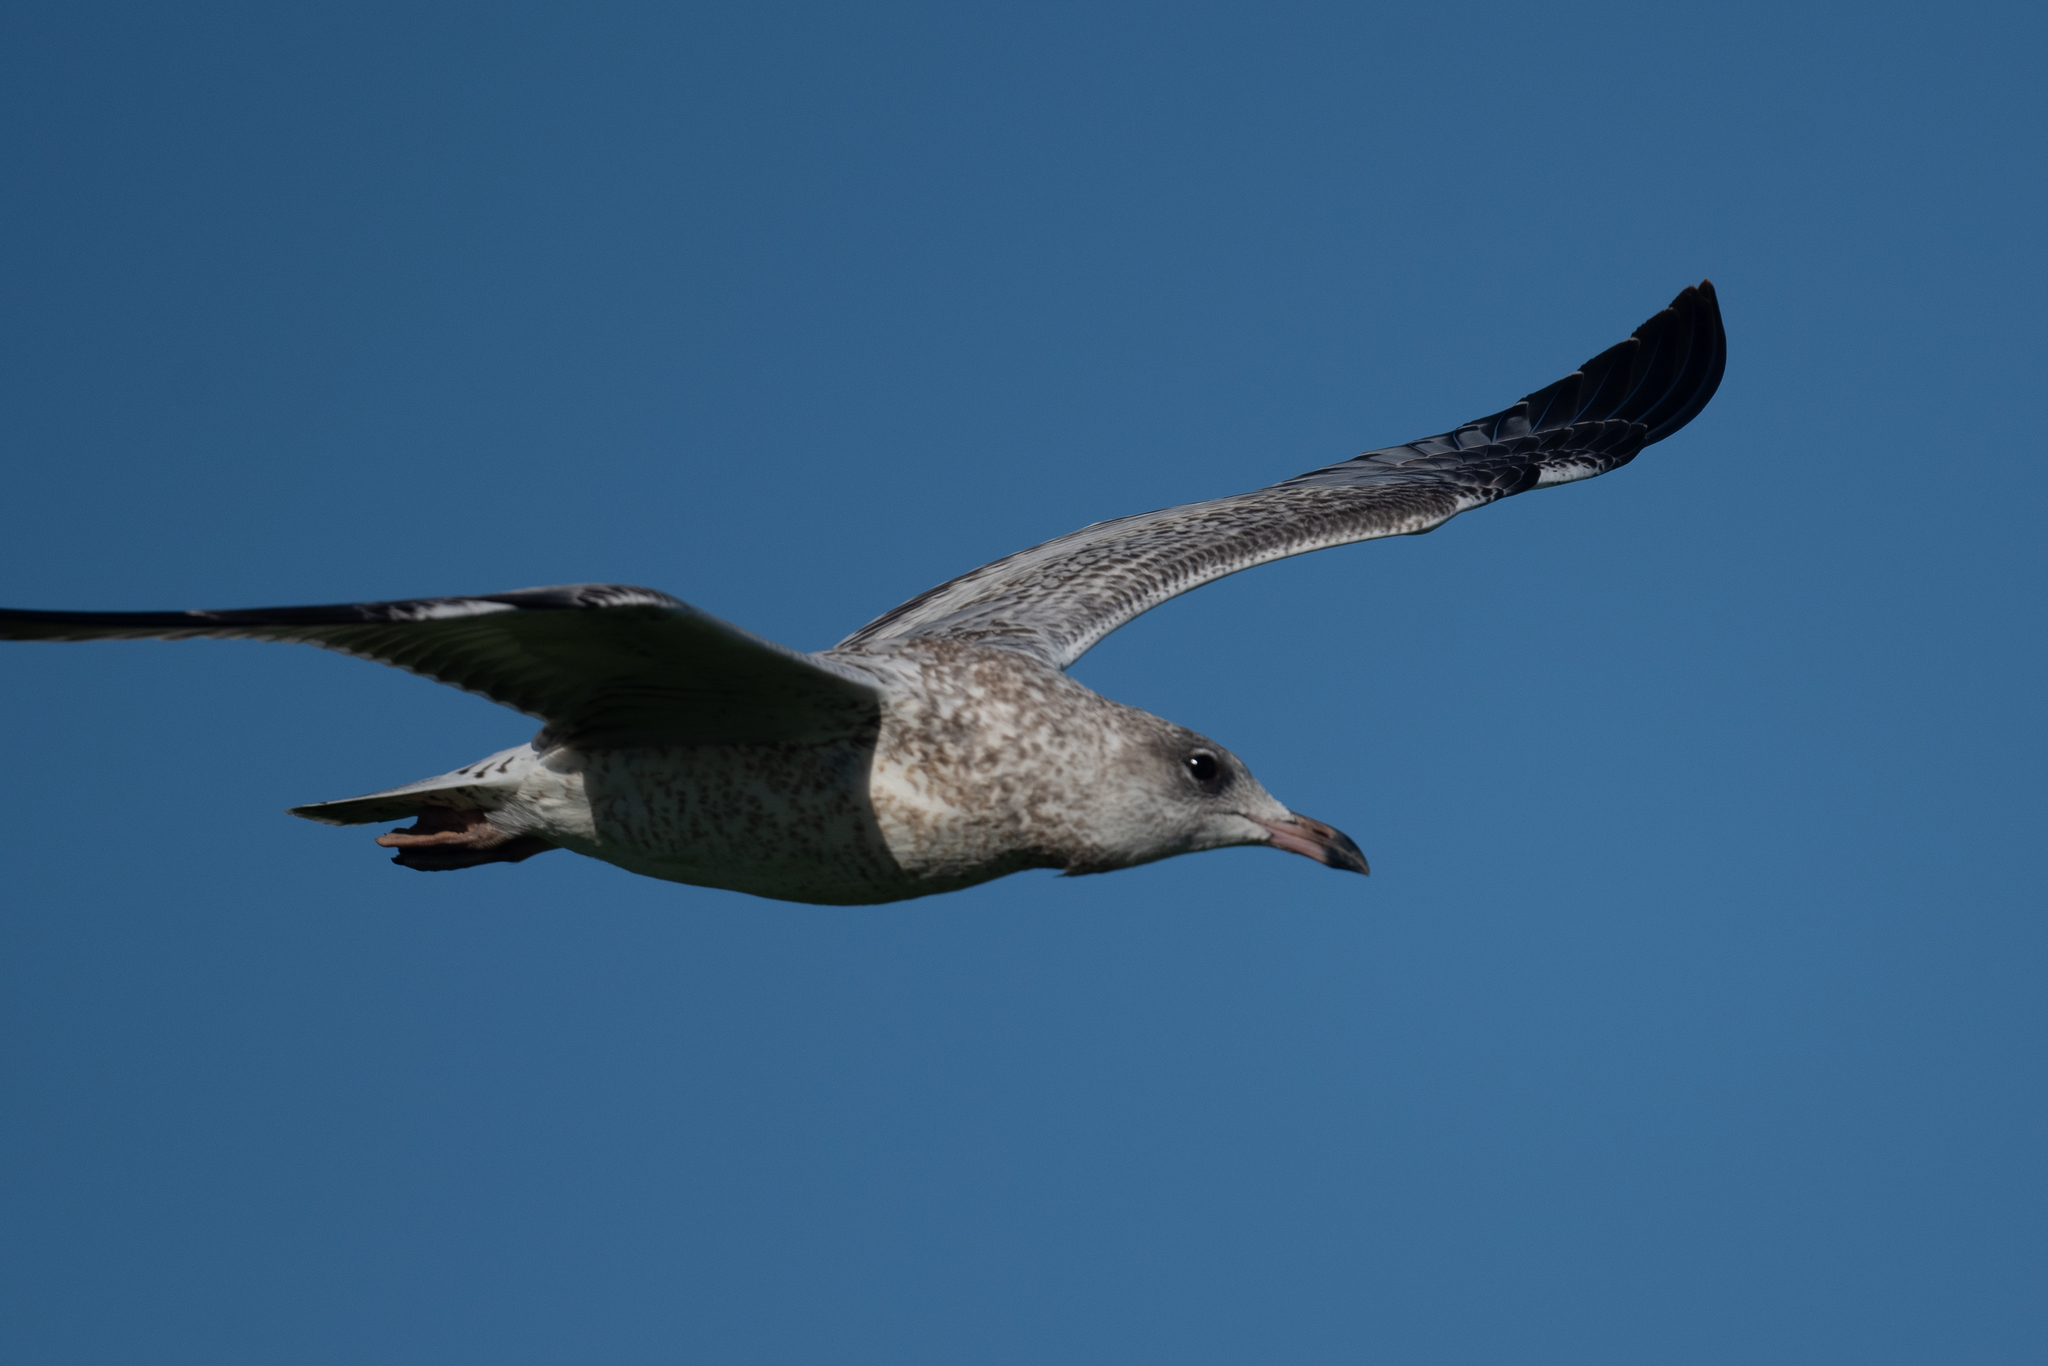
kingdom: Animalia
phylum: Chordata
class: Aves
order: Charadriiformes
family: Laridae
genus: Larus
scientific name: Larus delawarensis
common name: Ring-billed gull
